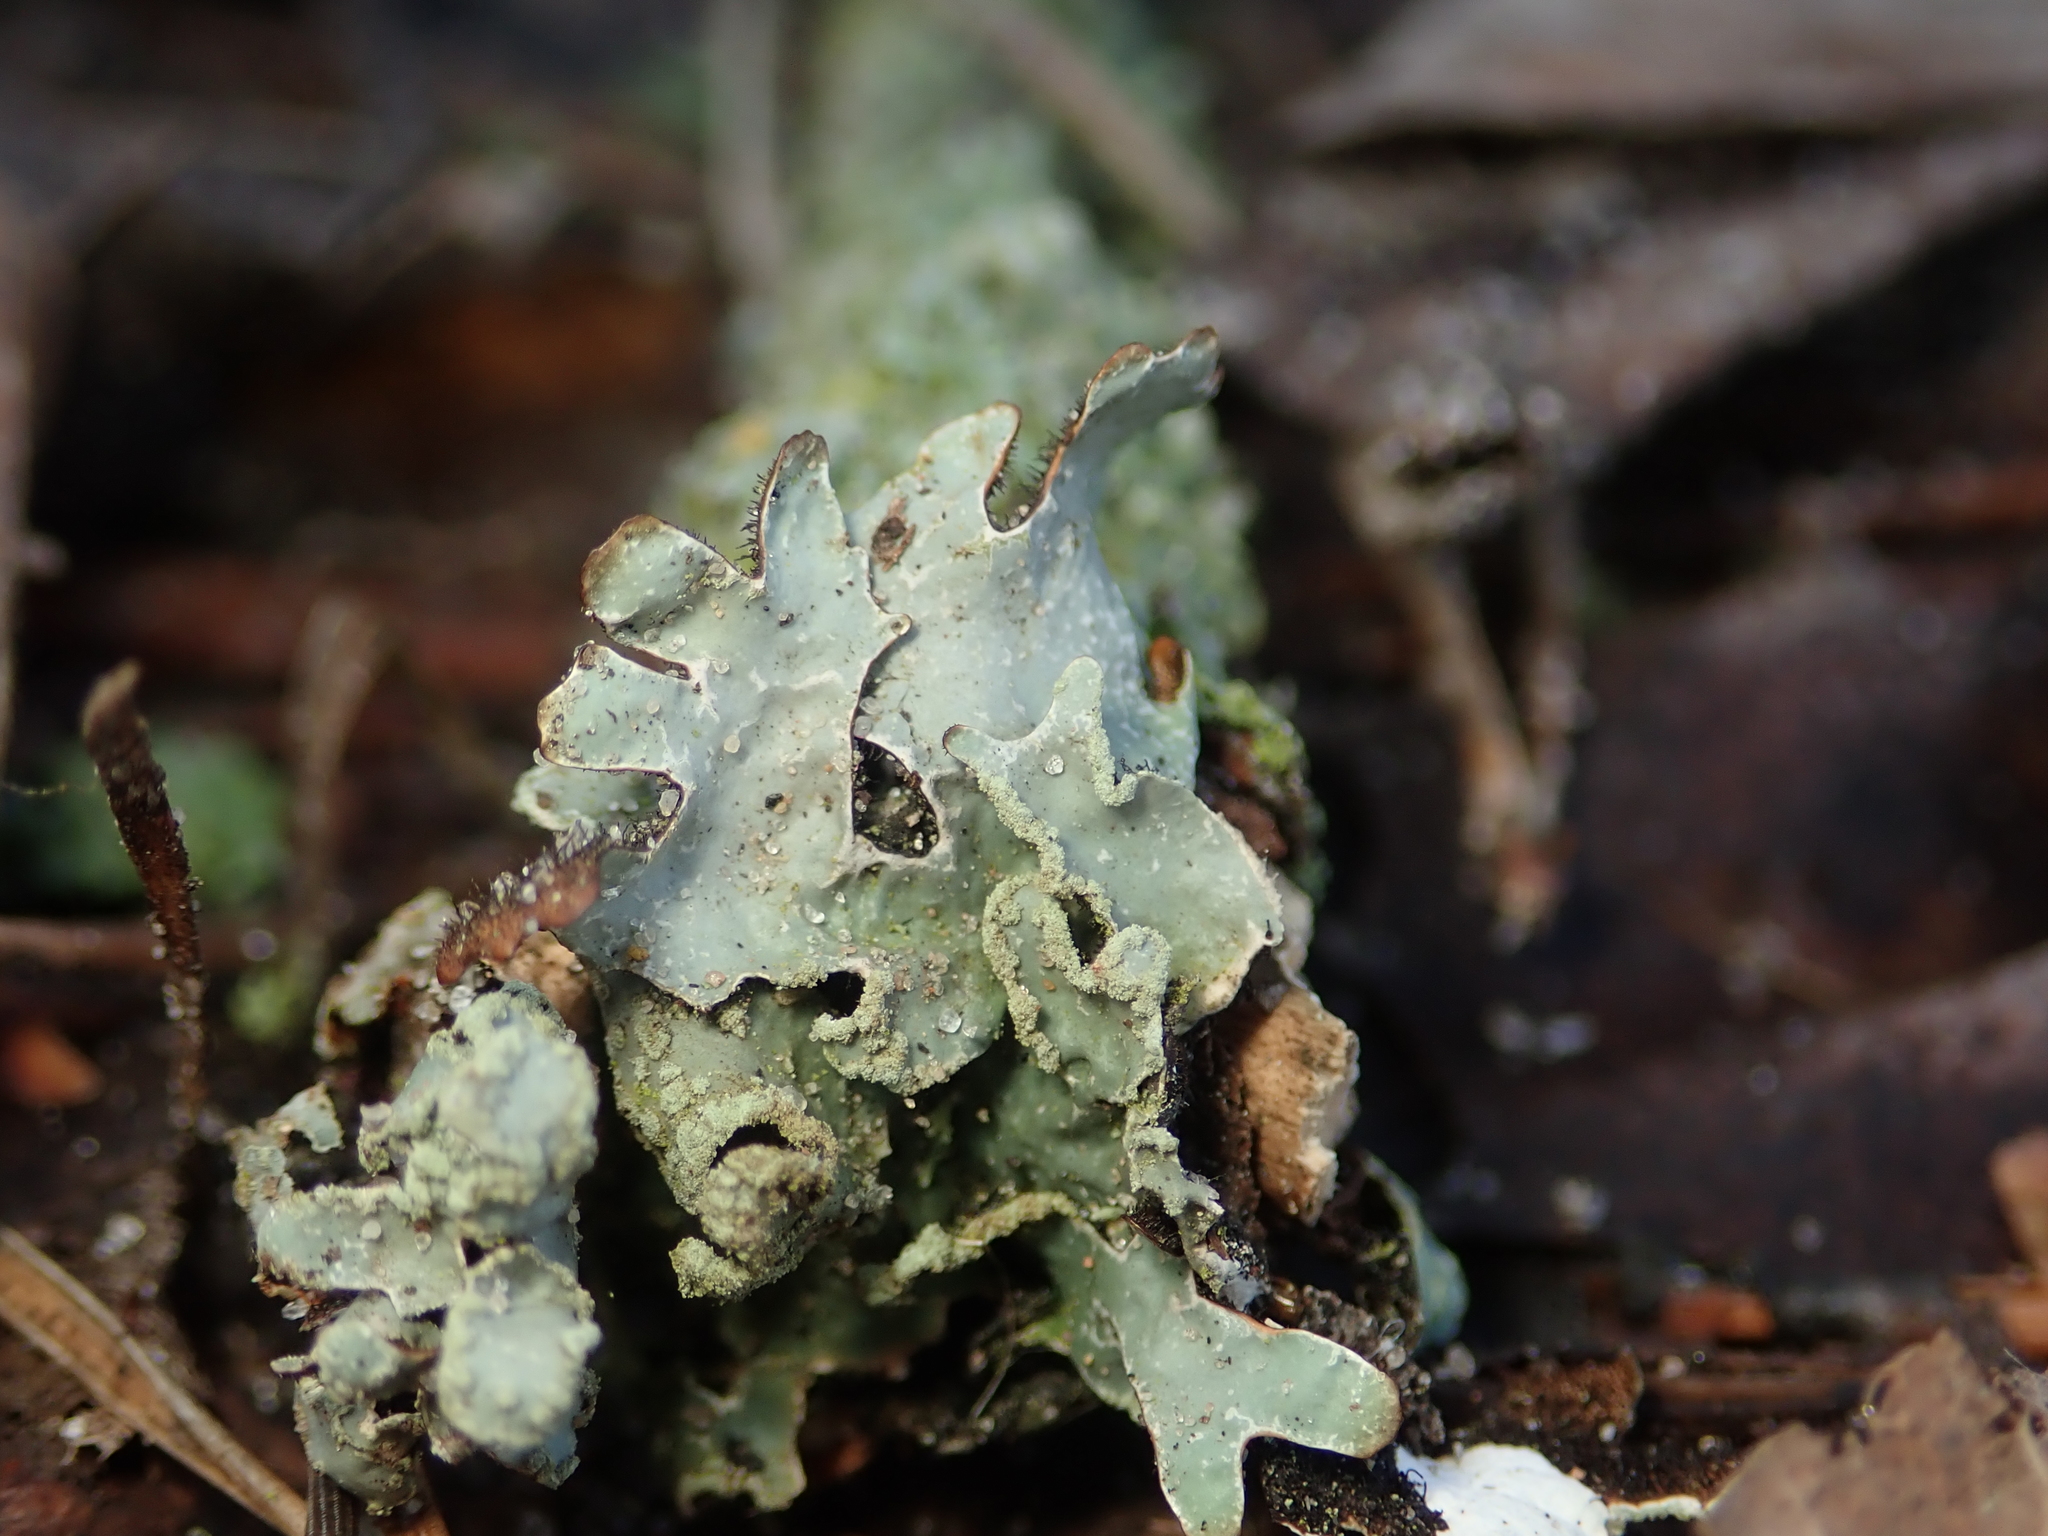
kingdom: Fungi
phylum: Ascomycota
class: Lecanoromycetes
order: Lecanorales
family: Parmeliaceae
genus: Parmelia
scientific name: Parmelia sulcata
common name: Netted shield lichen
